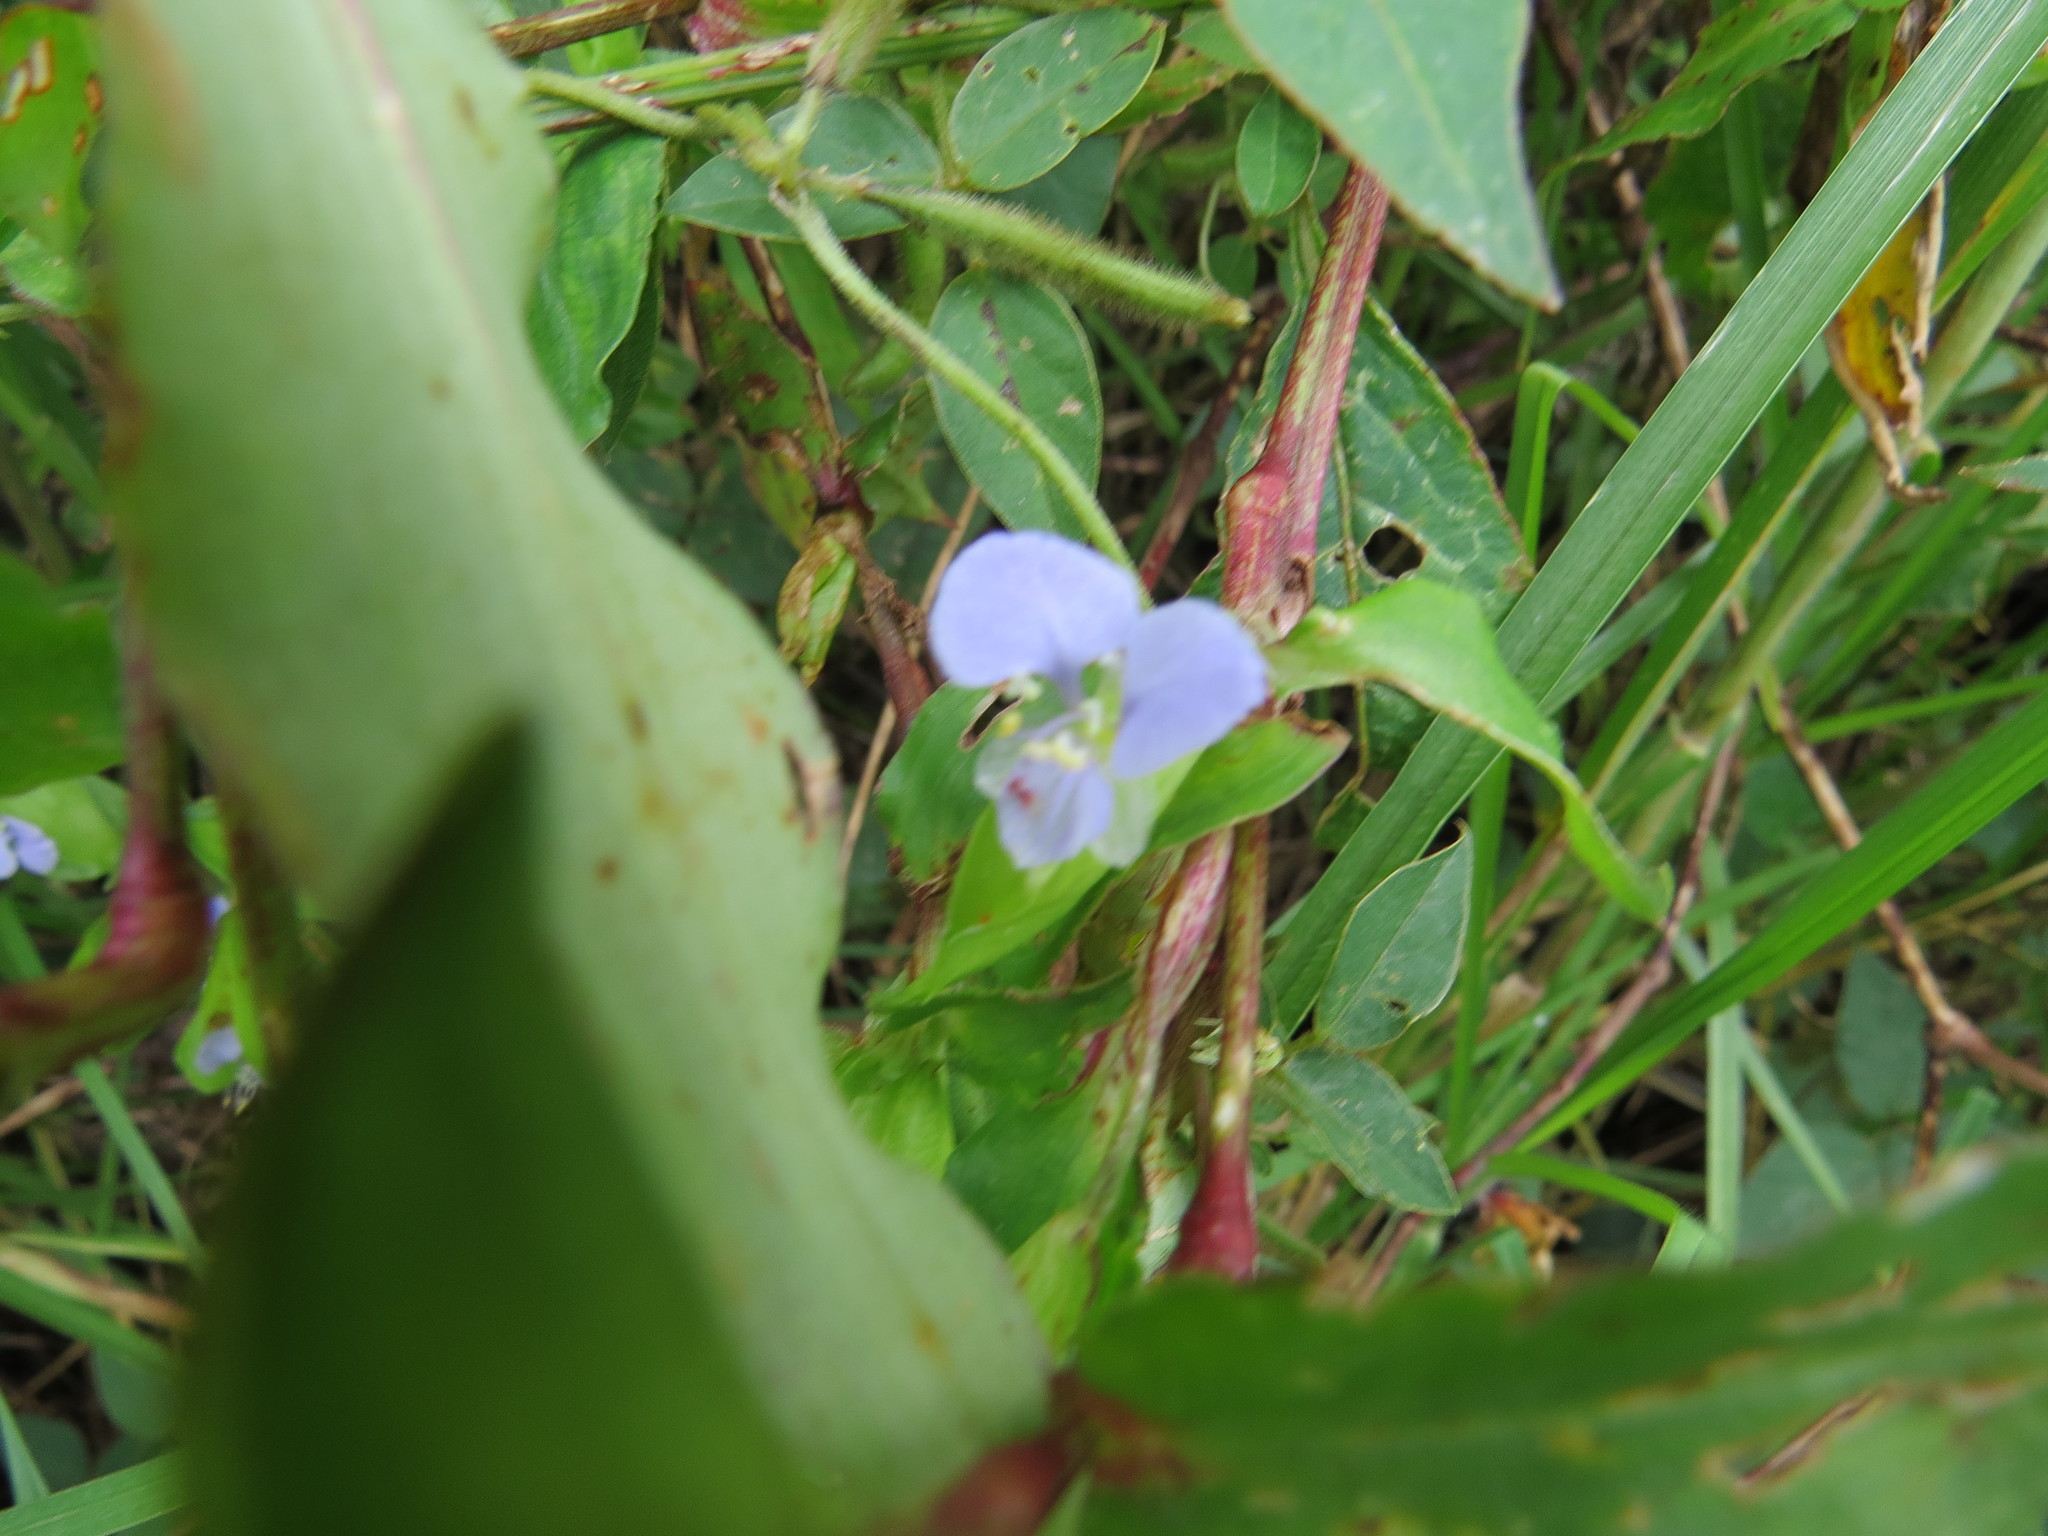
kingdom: Plantae
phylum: Tracheophyta
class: Liliopsida
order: Commelinales
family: Commelinaceae
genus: Commelina
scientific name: Commelina diffusa
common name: Climbing dayflower
